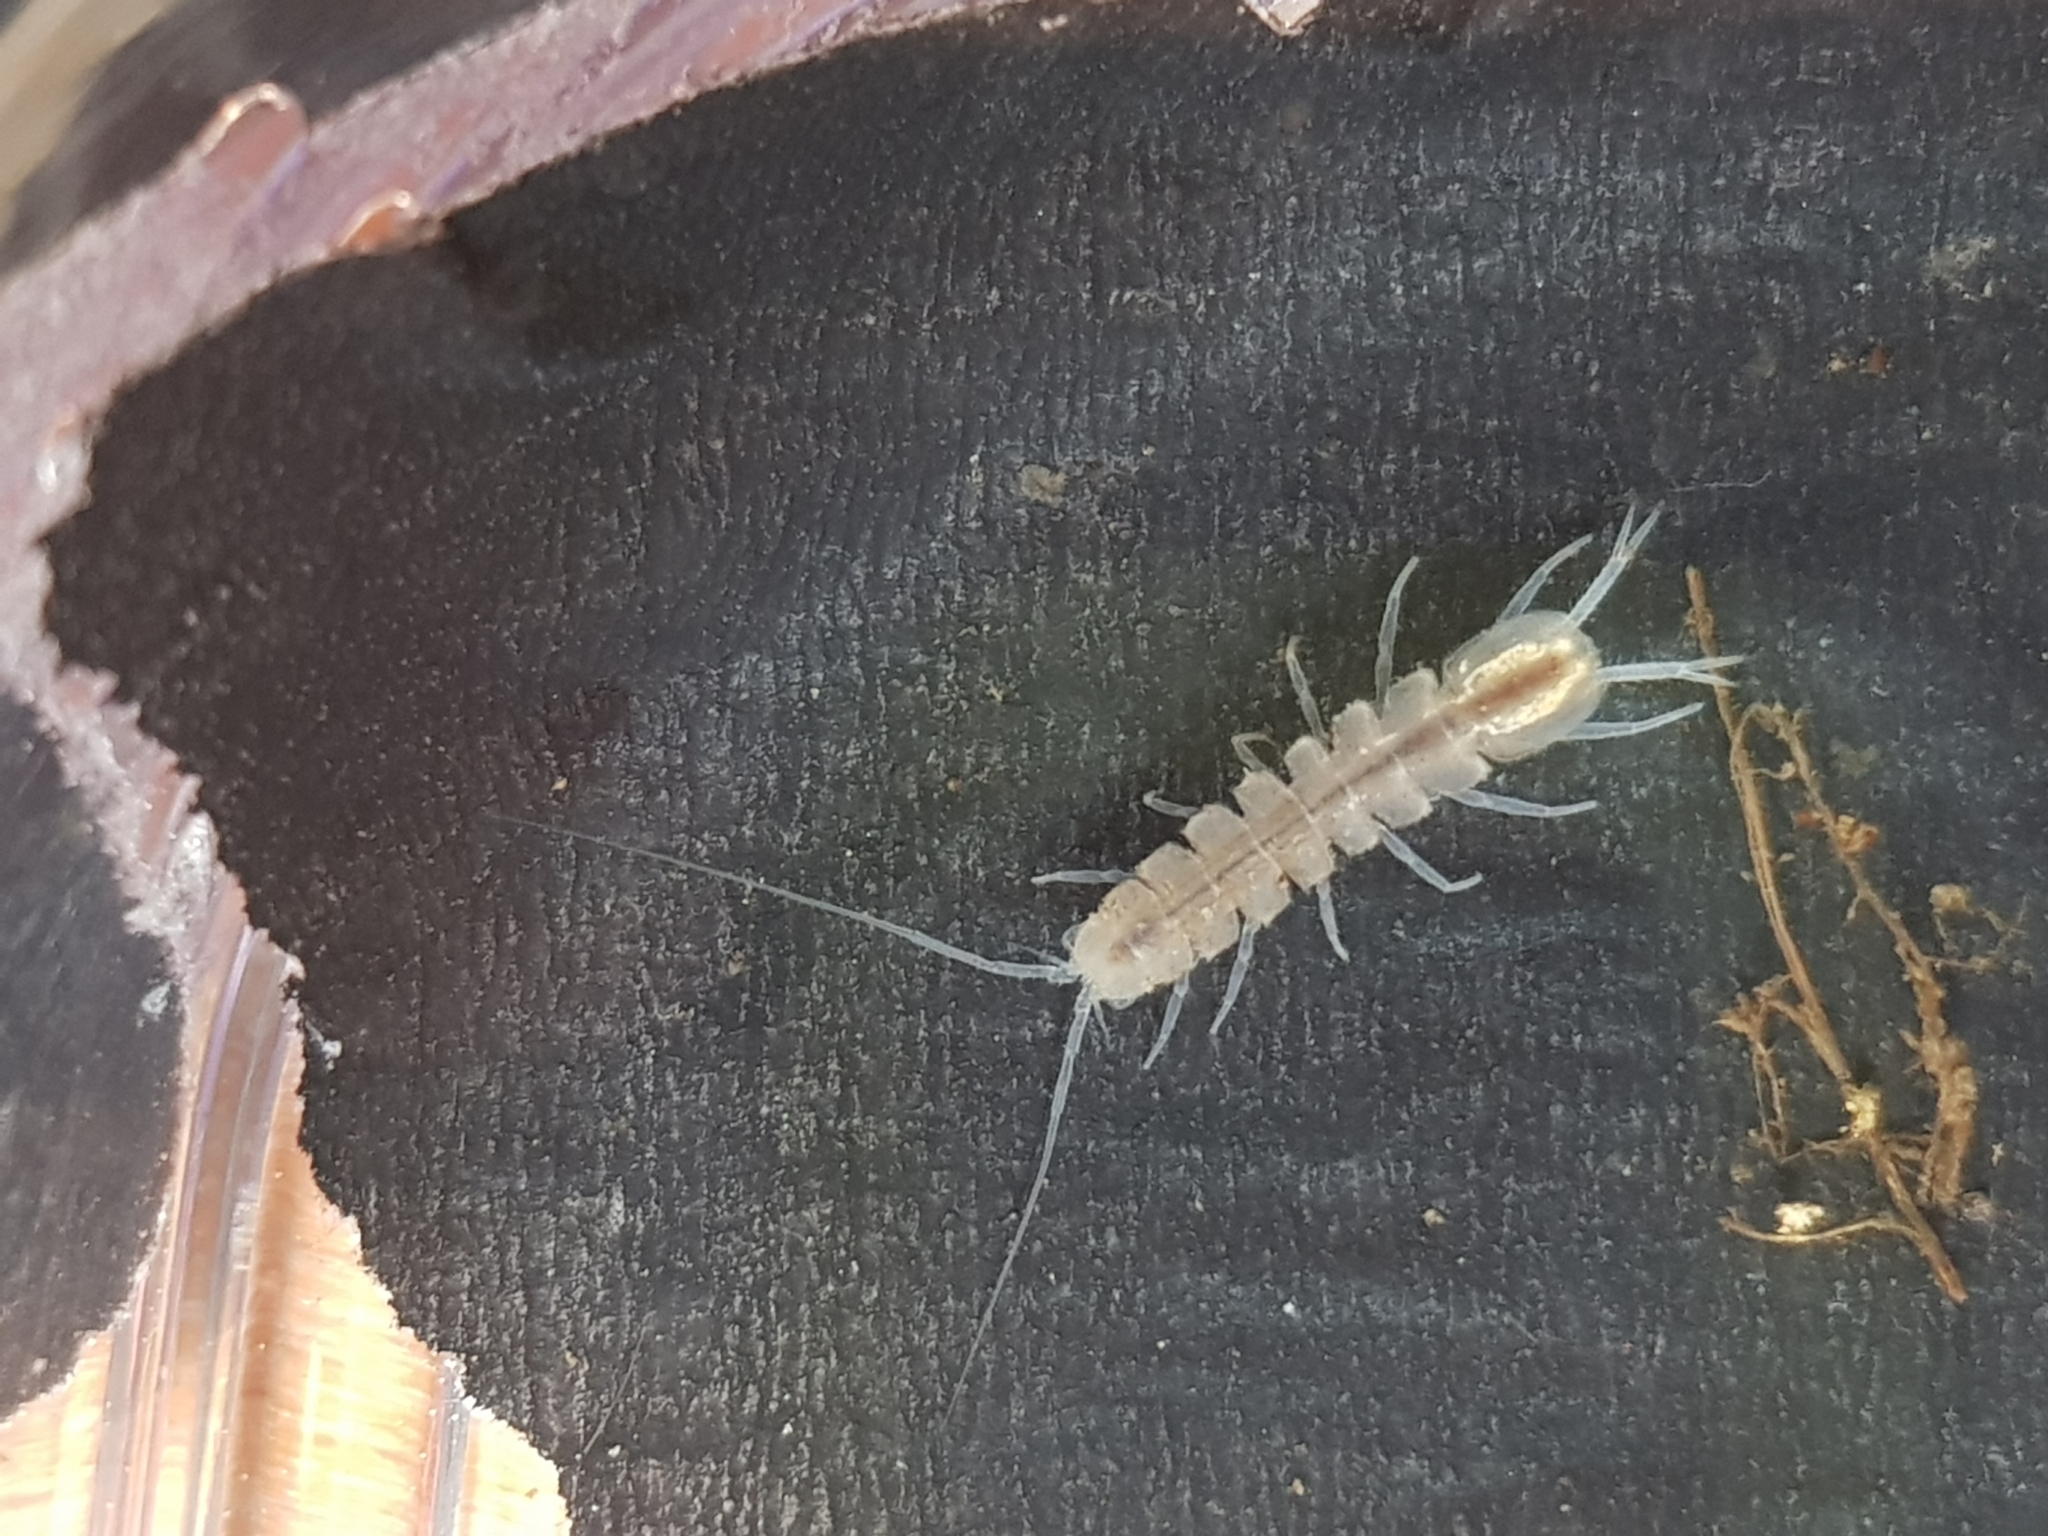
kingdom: Animalia
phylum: Arthropoda
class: Malacostraca
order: Isopoda
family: Asellidae
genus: Caecidotea
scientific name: Caecidotea pricei
